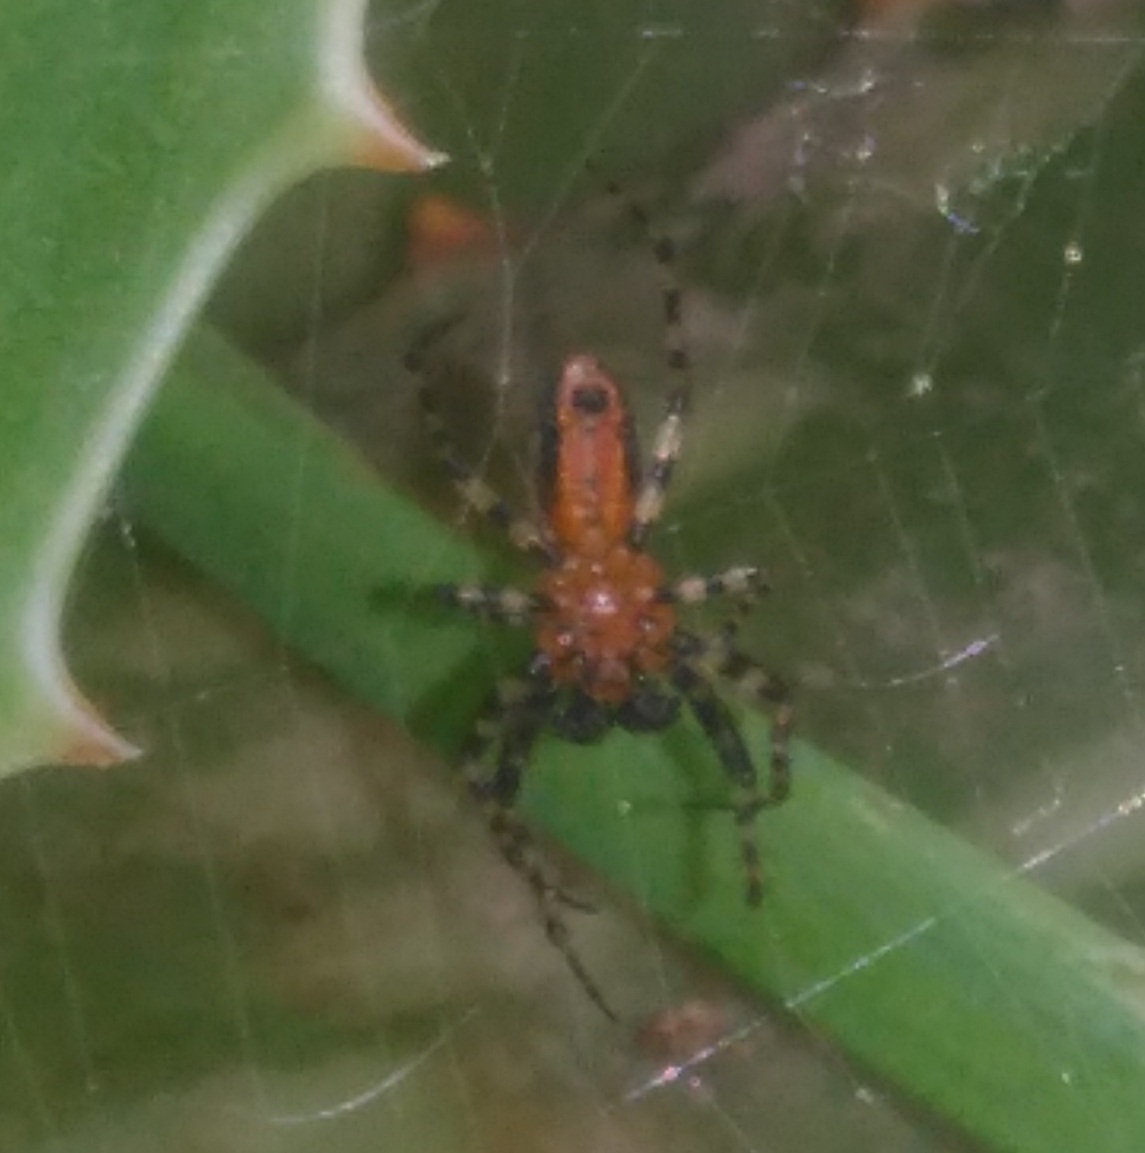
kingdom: Animalia
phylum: Arthropoda
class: Arachnida
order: Araneae
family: Araneidae
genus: Alpaida
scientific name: Alpaida gallardoi
